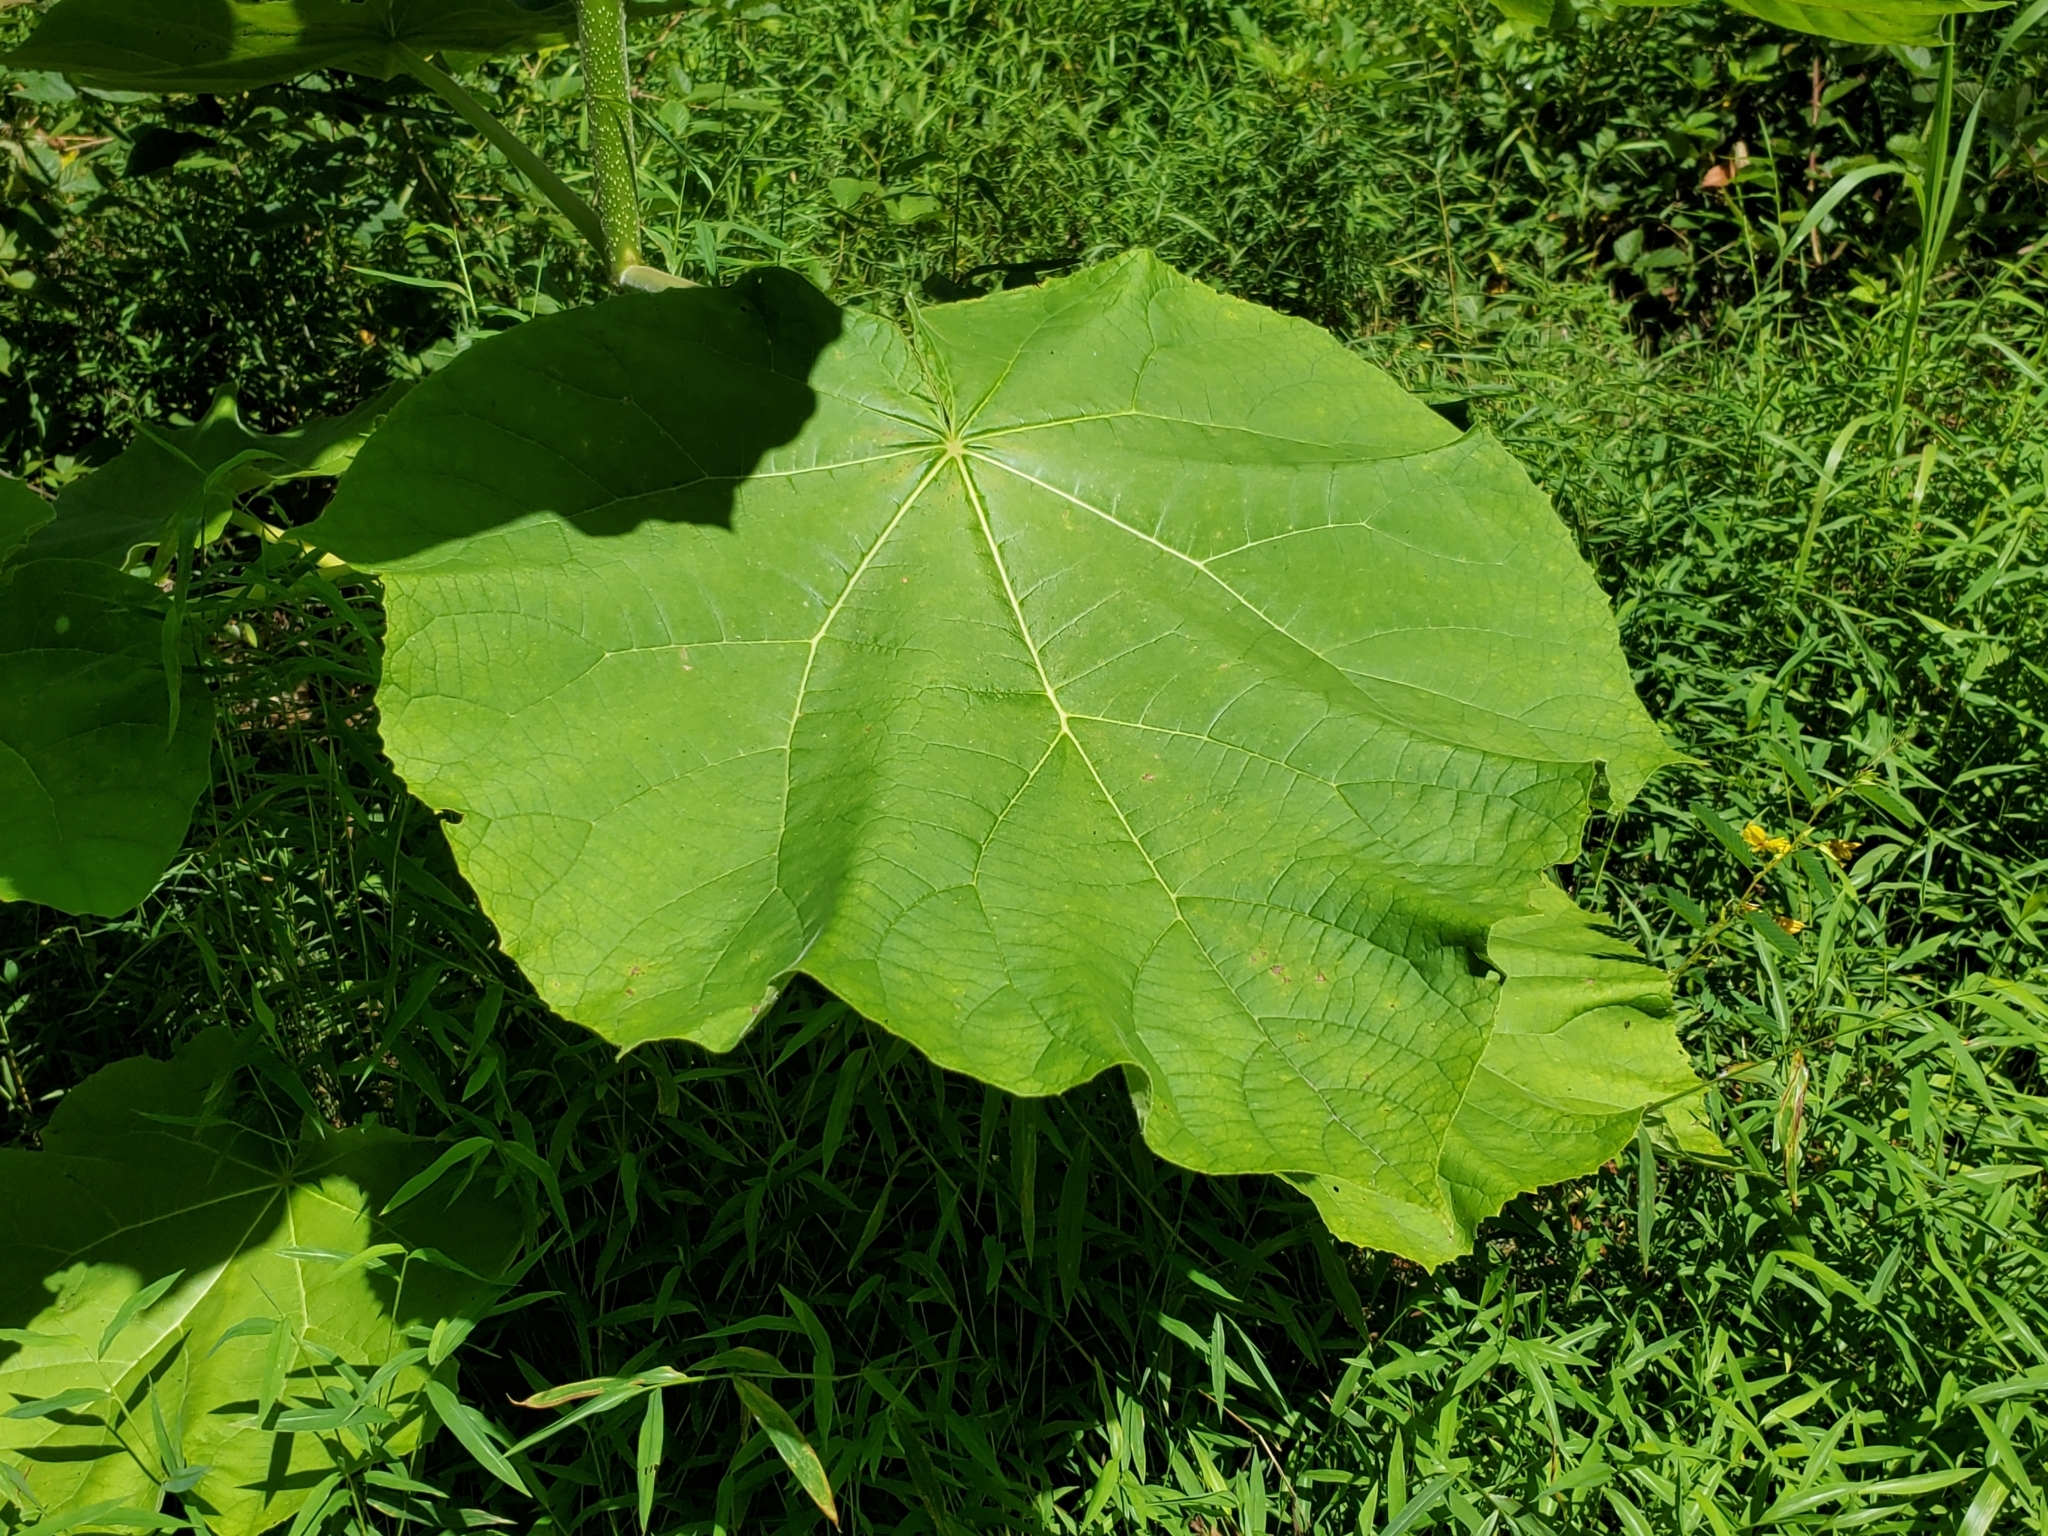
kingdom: Plantae
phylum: Tracheophyta
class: Magnoliopsida
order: Lamiales
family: Paulowniaceae
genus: Paulownia
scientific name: Paulownia tomentosa
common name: Foxglove-tree
